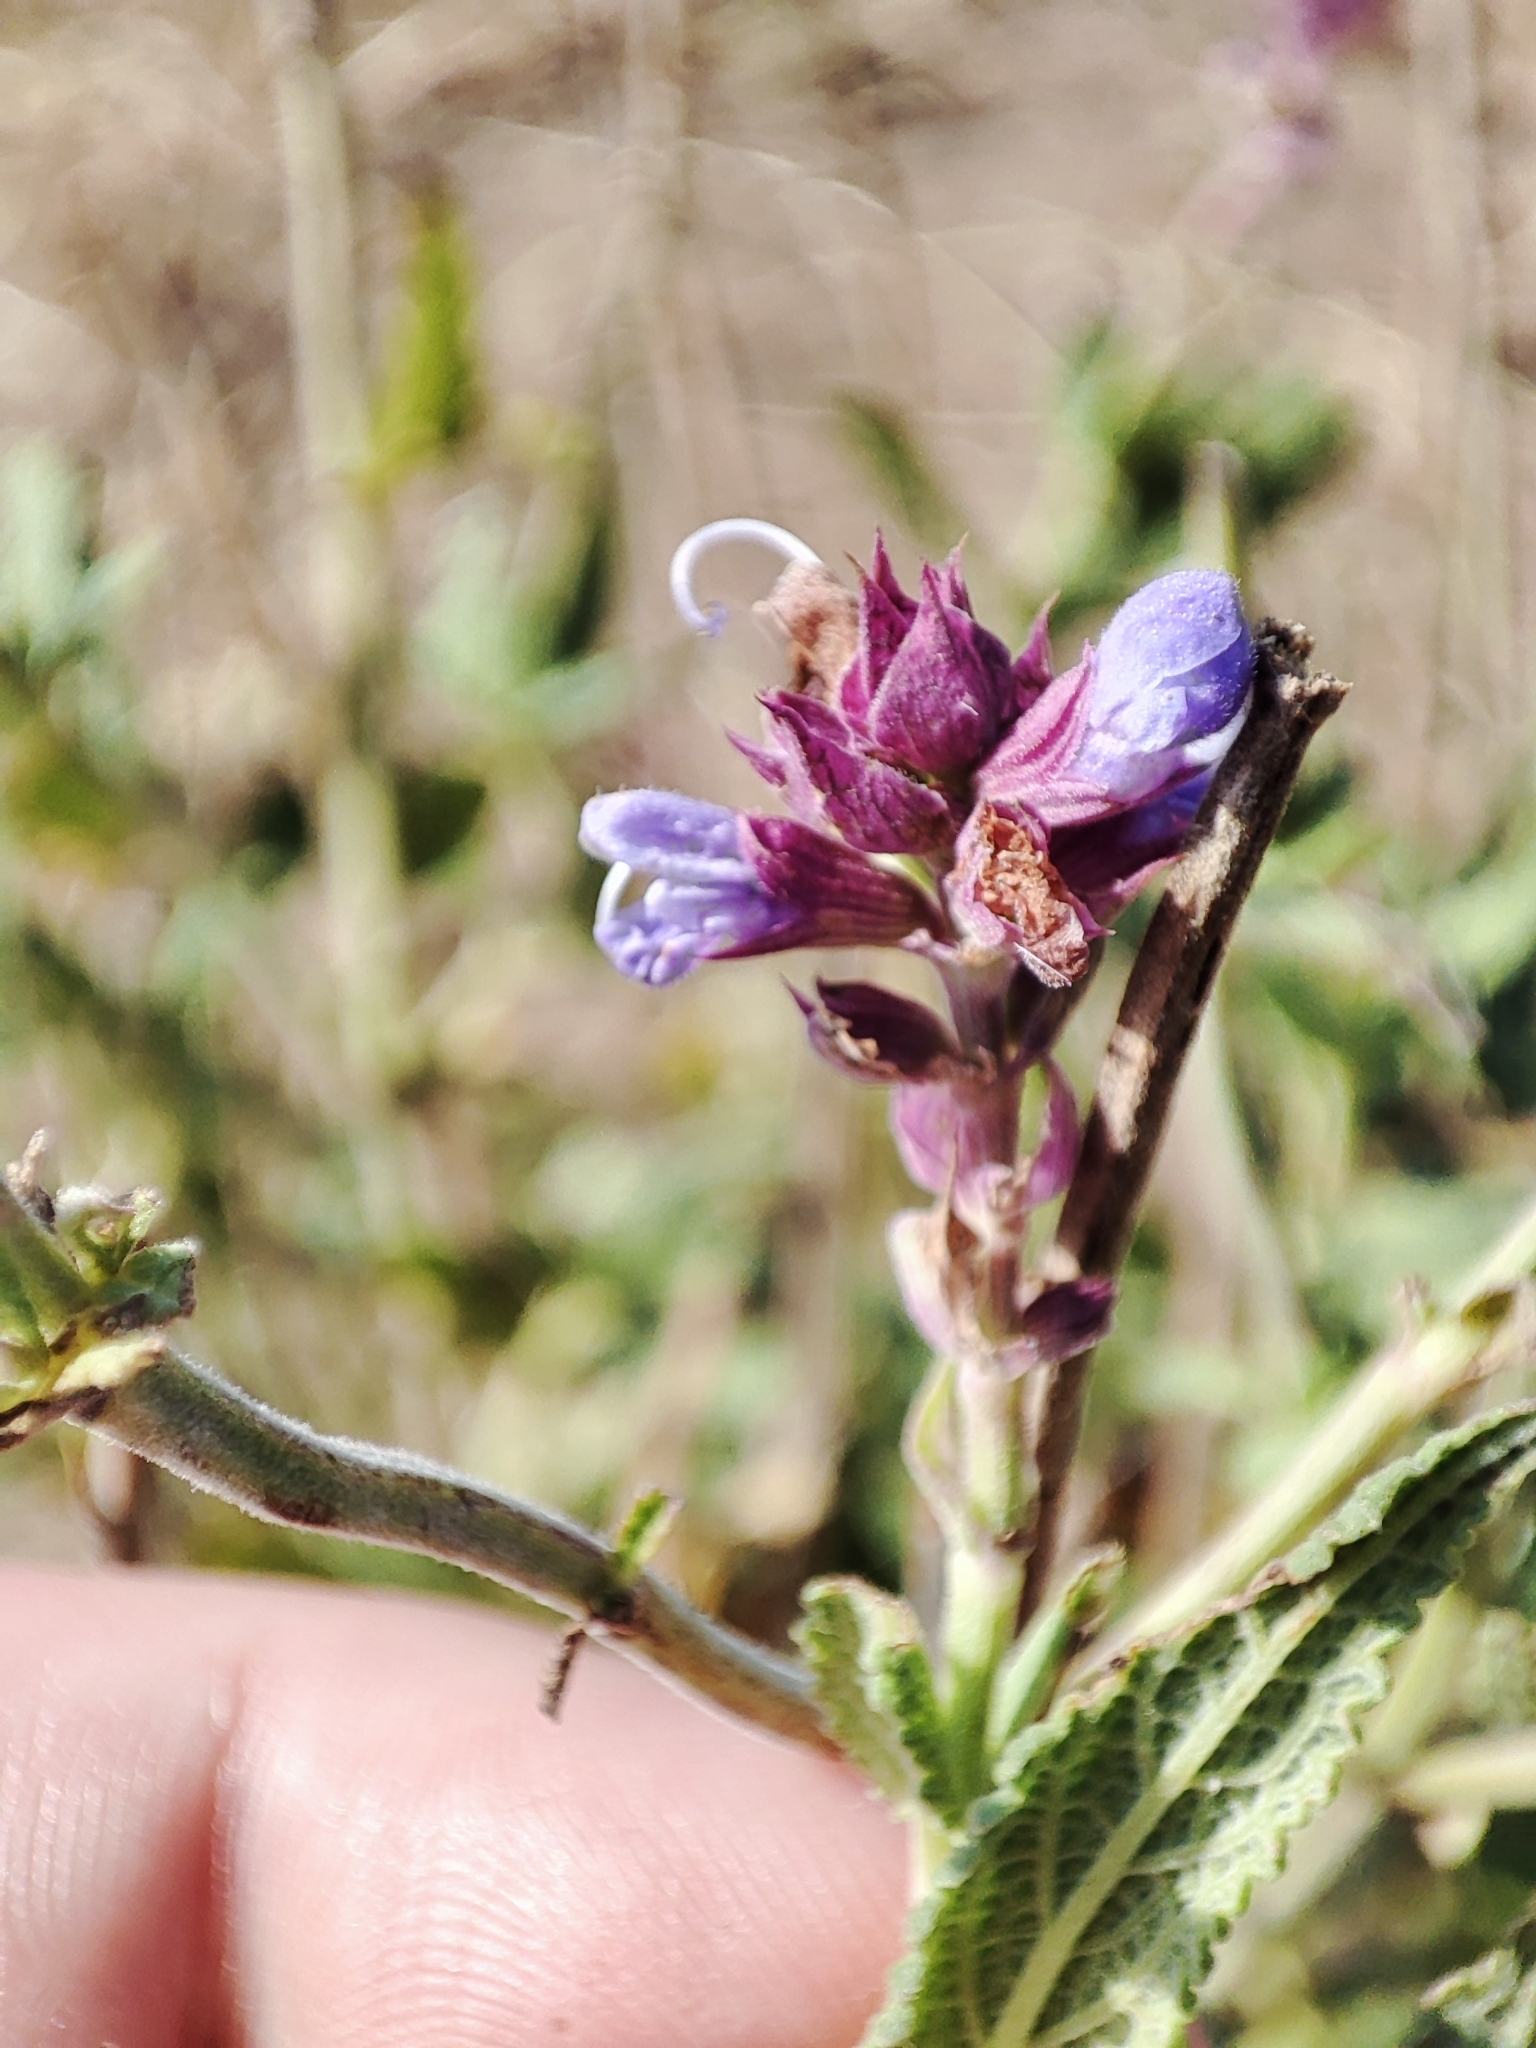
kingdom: Plantae
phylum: Tracheophyta
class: Magnoliopsida
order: Lamiales
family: Lamiaceae
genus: Salvia
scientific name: Salvia nemorosa
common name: Balkan clary
